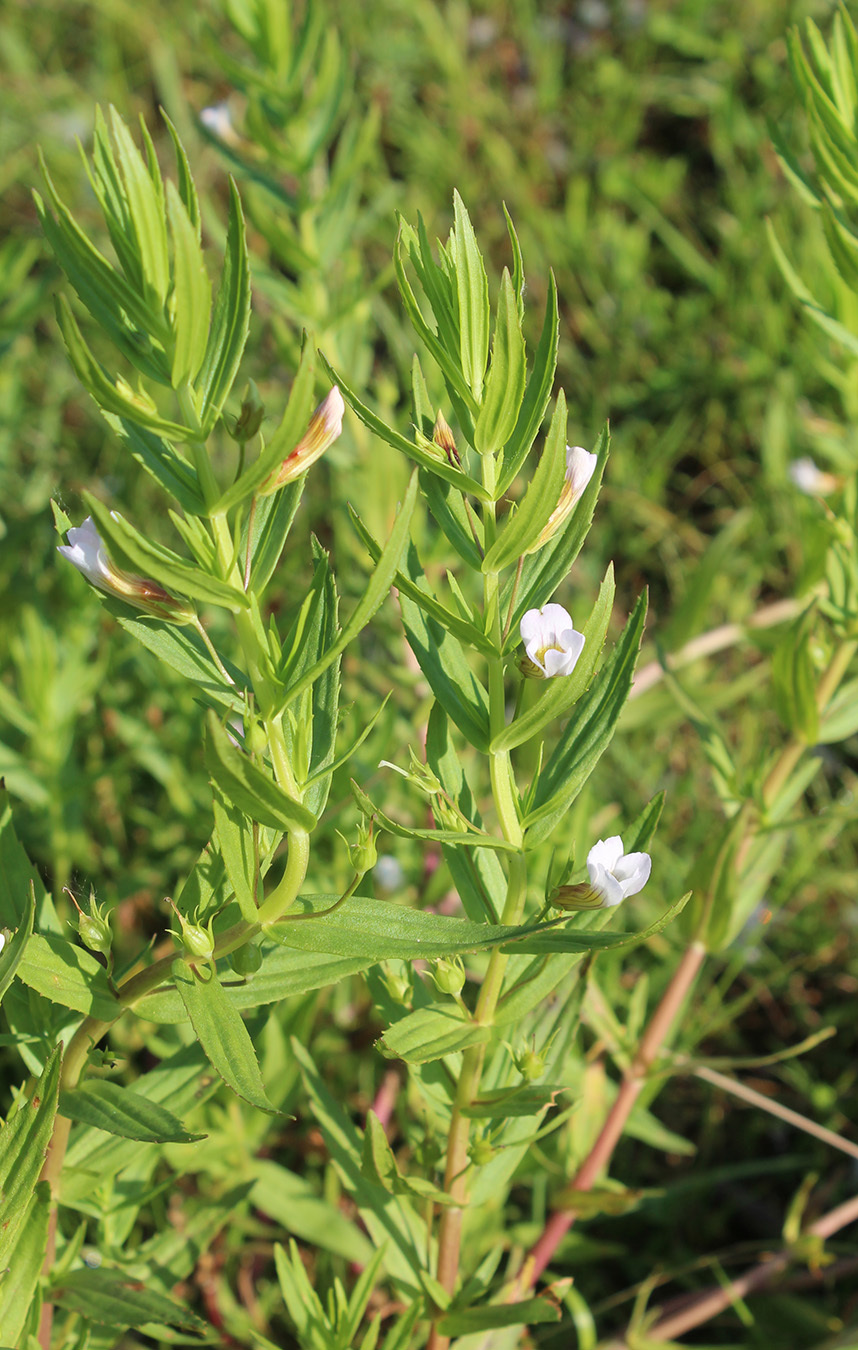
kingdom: Plantae
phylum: Tracheophyta
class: Magnoliopsida
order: Lamiales
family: Plantaginaceae
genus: Gratiola
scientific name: Gratiola officinalis
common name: Gratiola
